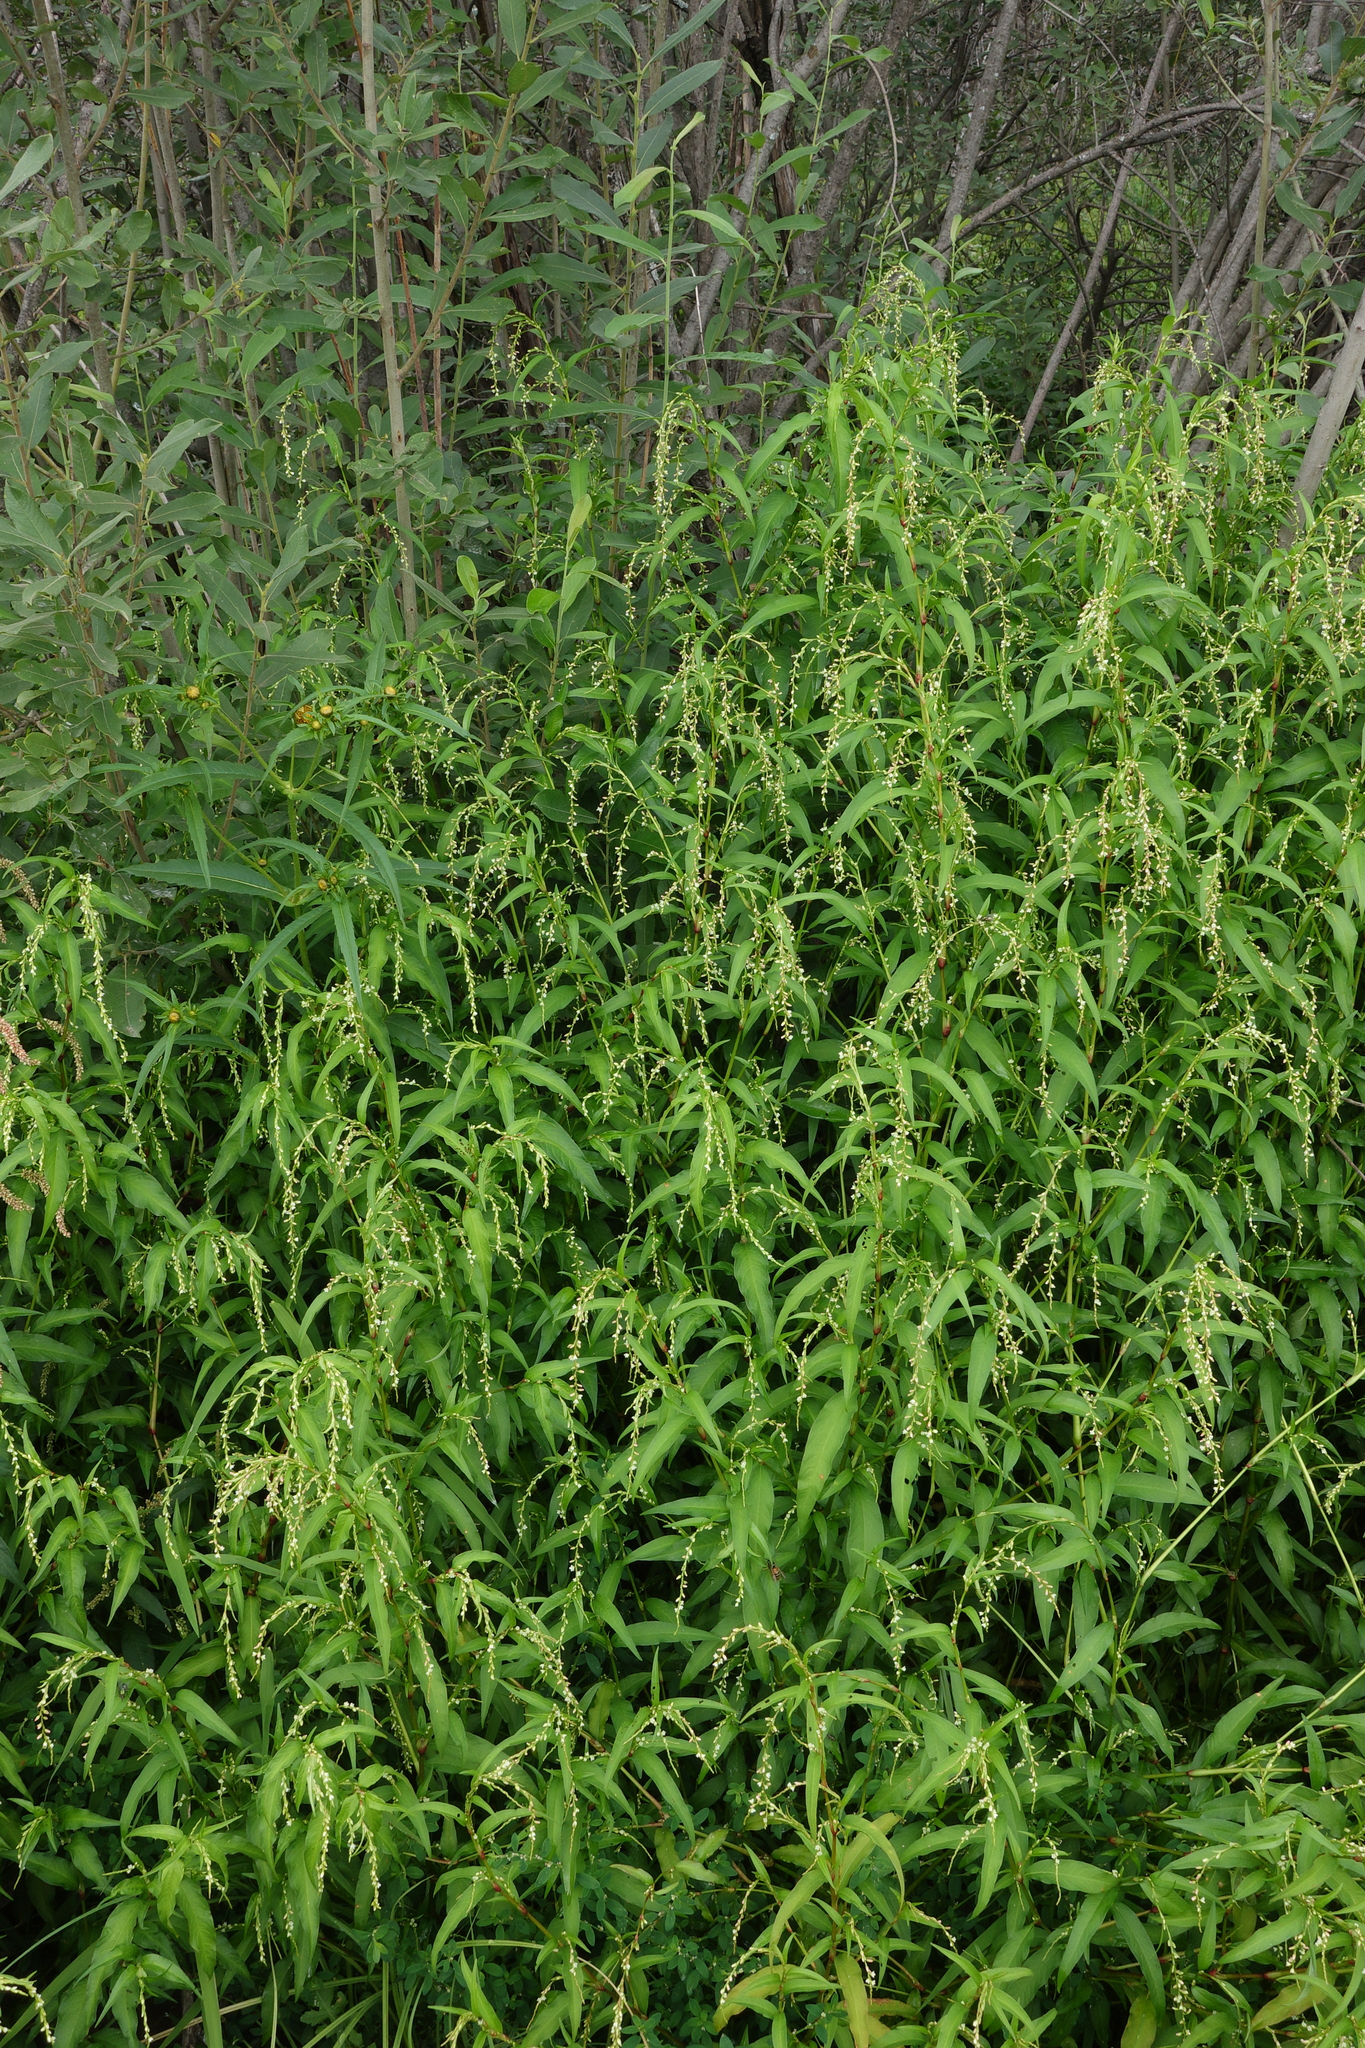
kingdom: Plantae
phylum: Tracheophyta
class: Magnoliopsida
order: Caryophyllales
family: Polygonaceae
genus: Persicaria
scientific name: Persicaria hydropiper
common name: Water-pepper
